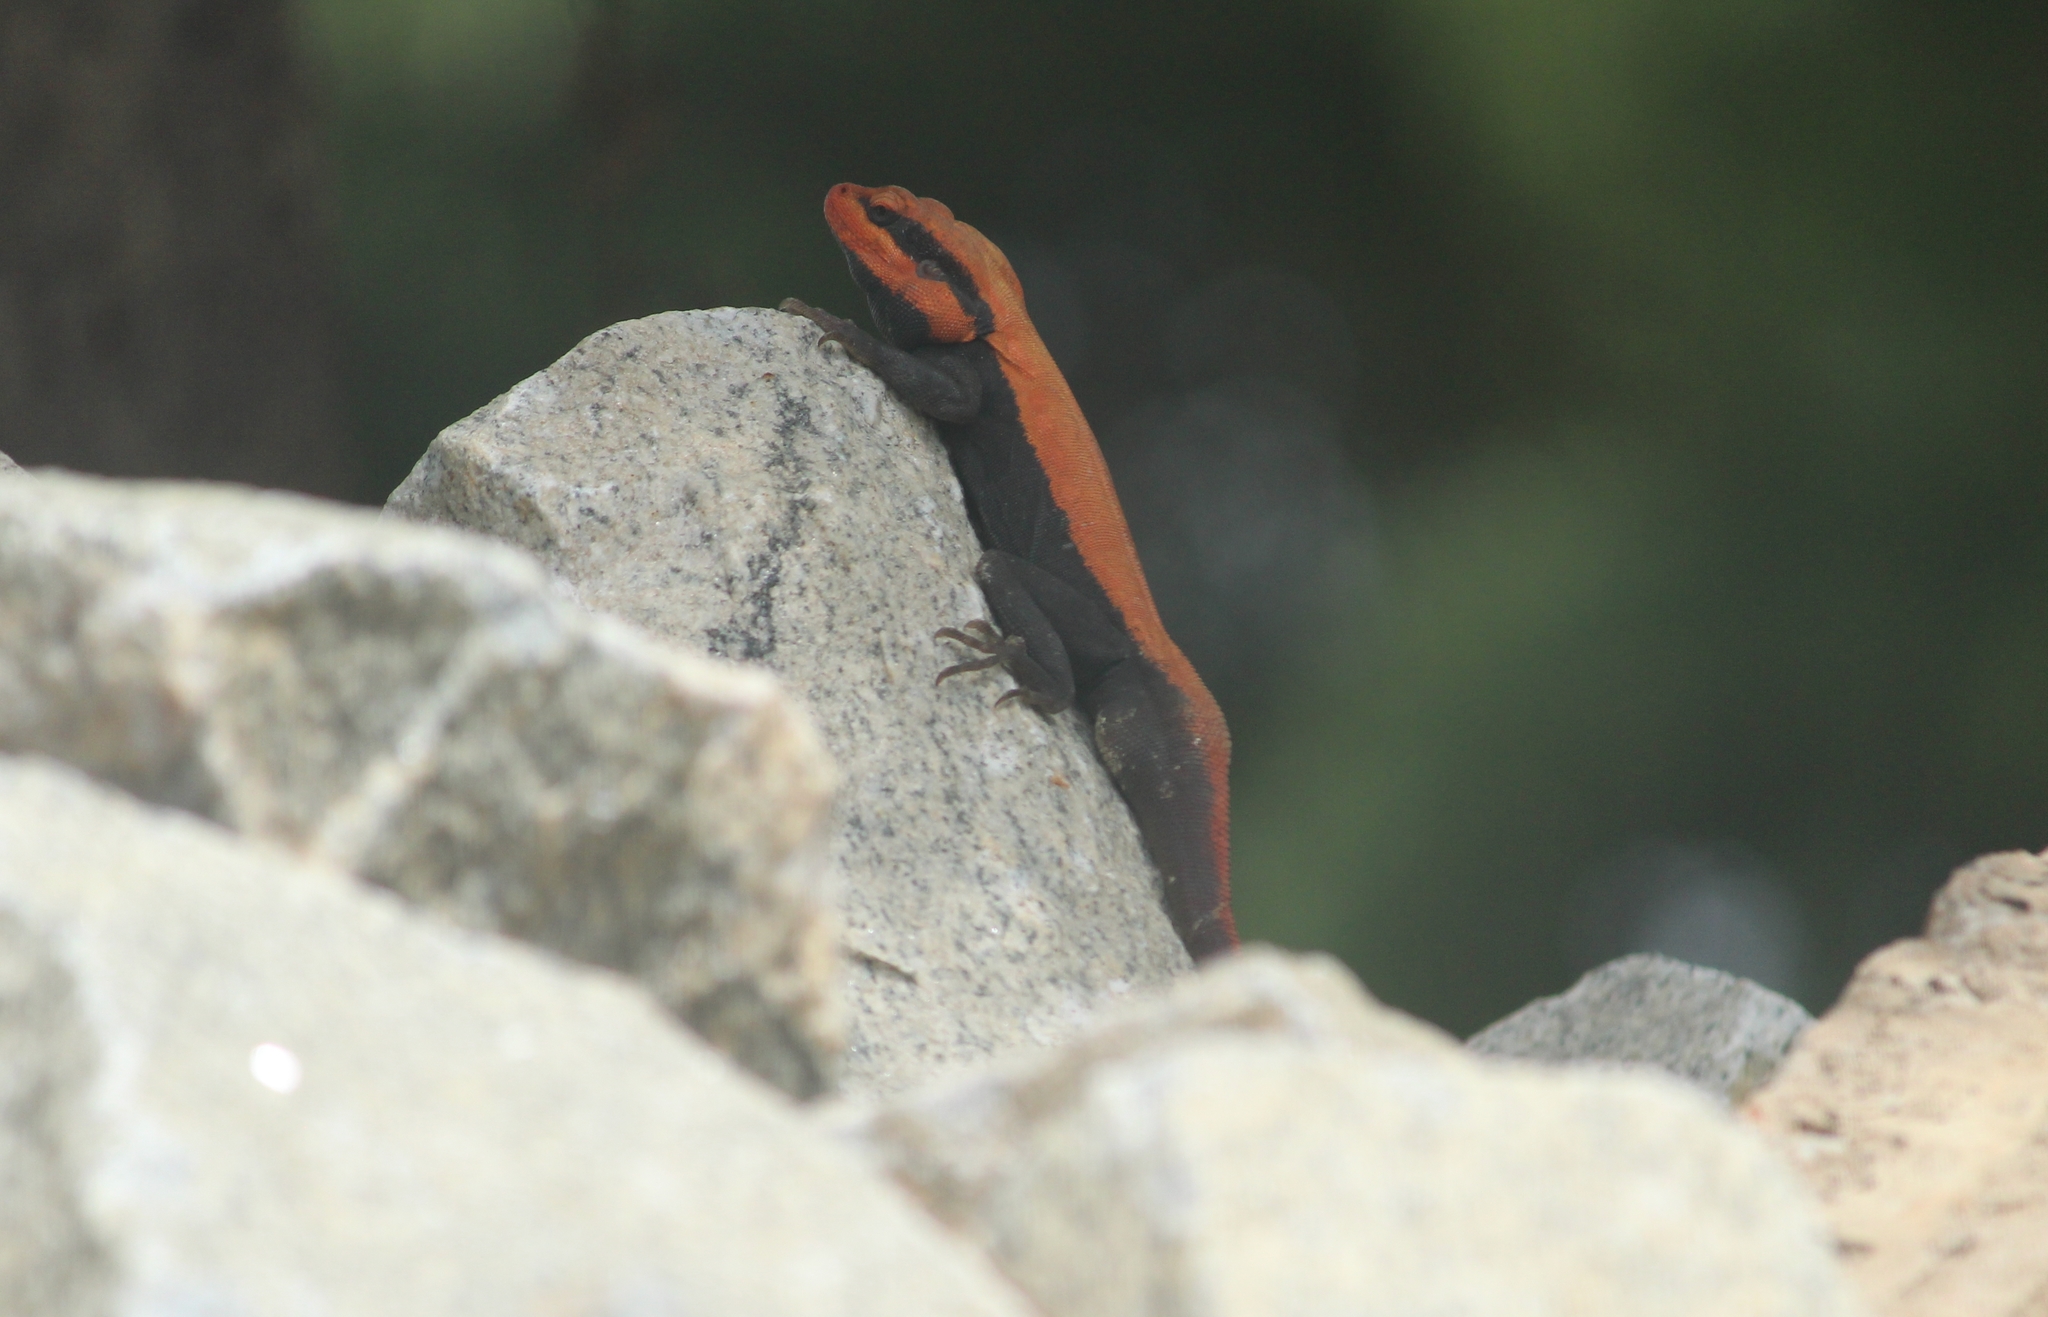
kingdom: Animalia
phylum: Chordata
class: Squamata
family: Agamidae
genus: Psammophilus
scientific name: Psammophilus dorsalis
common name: South indian rock agama
